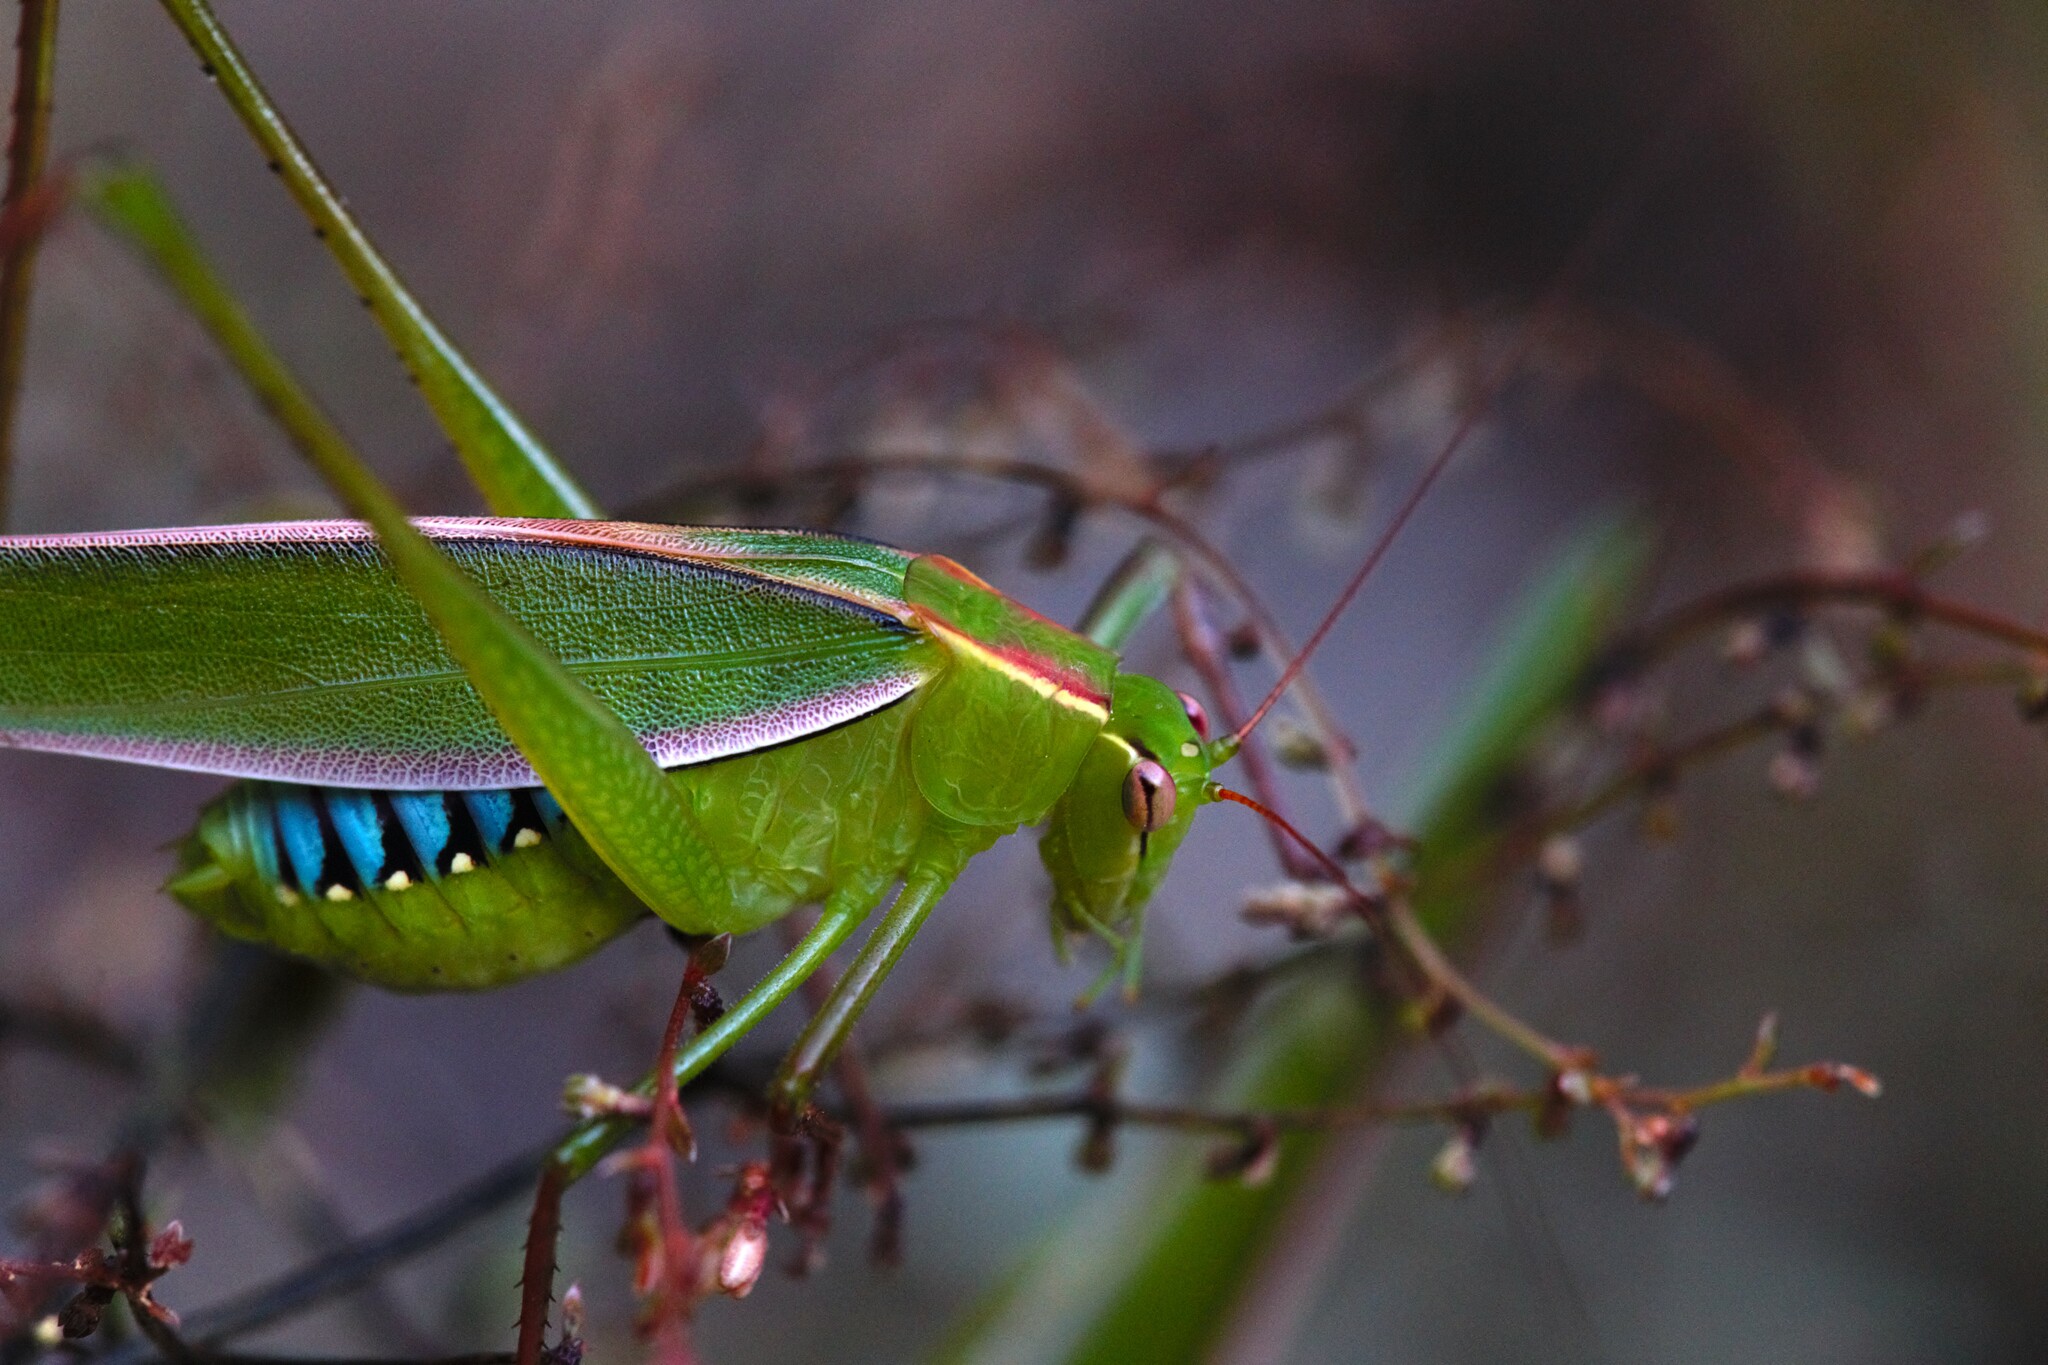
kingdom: Animalia
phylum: Arthropoda
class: Insecta
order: Orthoptera
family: Tettigoniidae
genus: Caedicia
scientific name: Caedicia gloriosa
